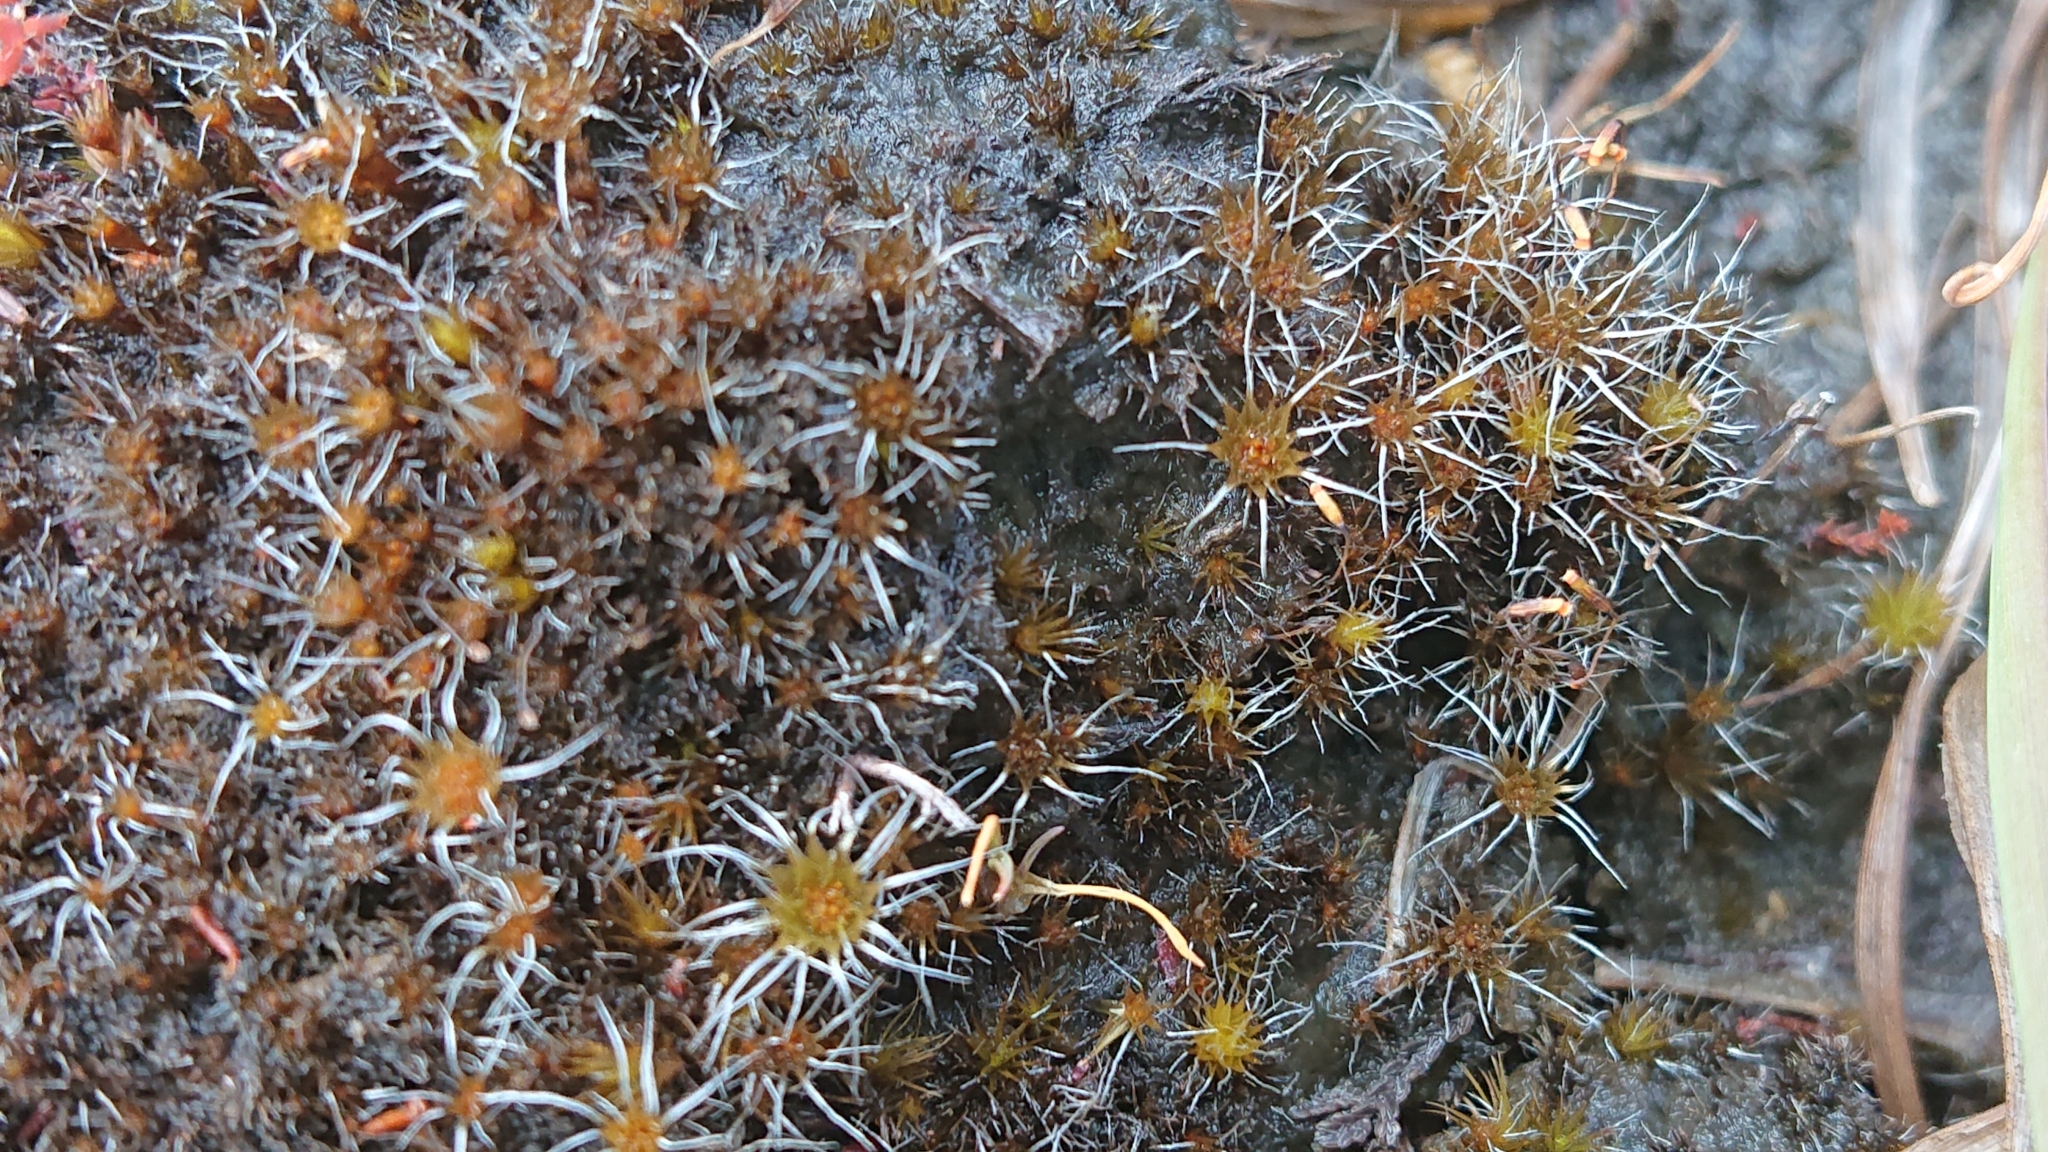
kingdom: Plantae
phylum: Bryophyta
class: Bryopsida
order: Dicranales
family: Leucobryaceae
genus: Campylopus
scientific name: Campylopus introflexus
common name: Heath star moss
